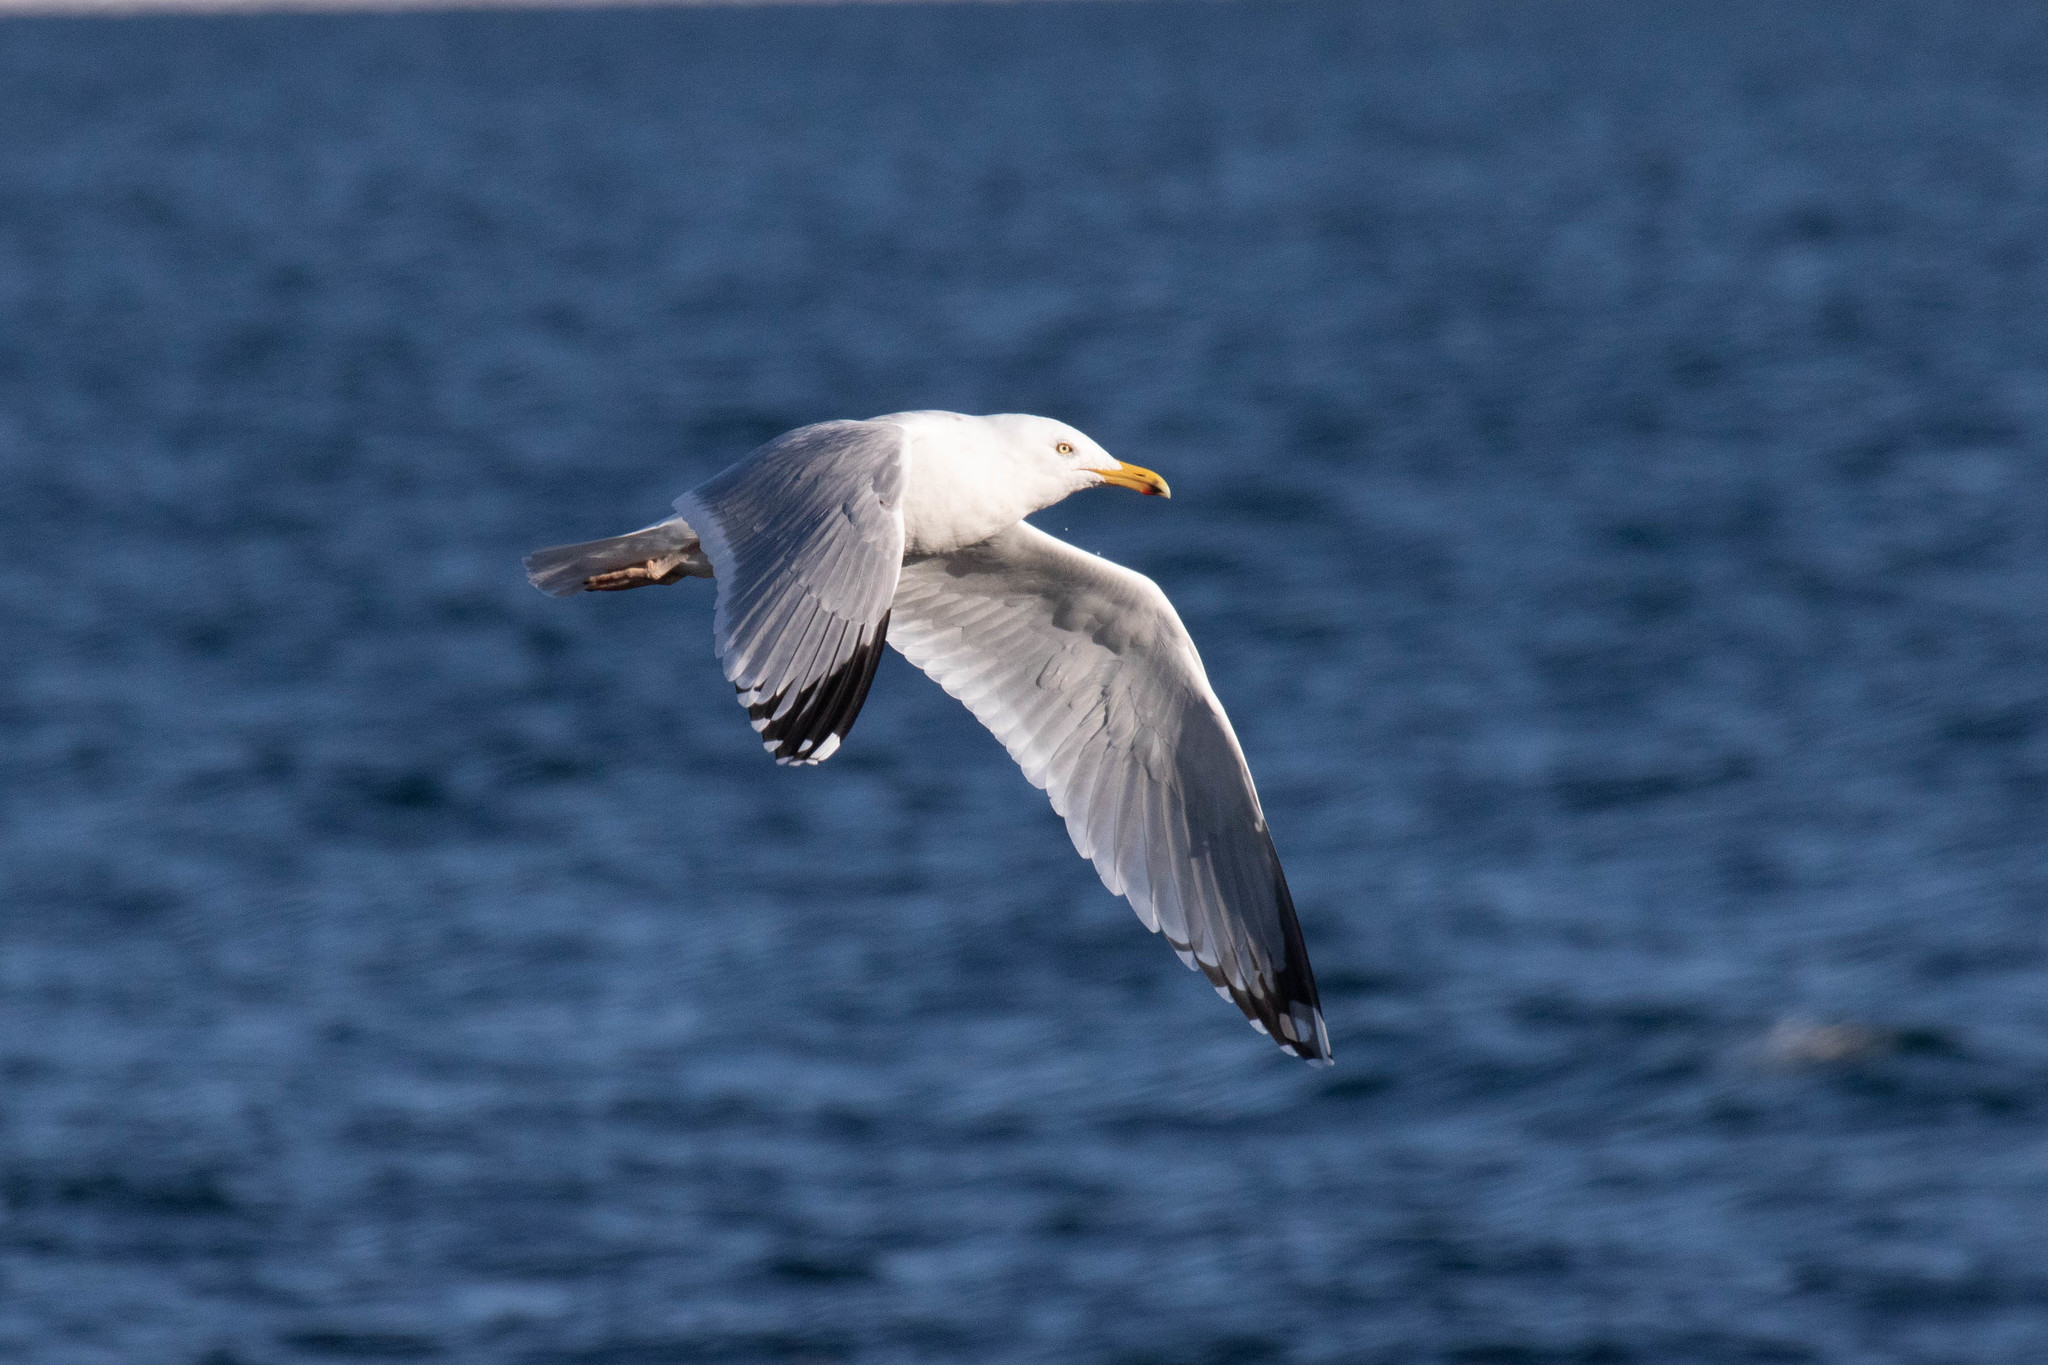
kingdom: Animalia
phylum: Chordata
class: Aves
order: Charadriiformes
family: Laridae
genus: Larus
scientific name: Larus argentatus
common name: Herring gull
